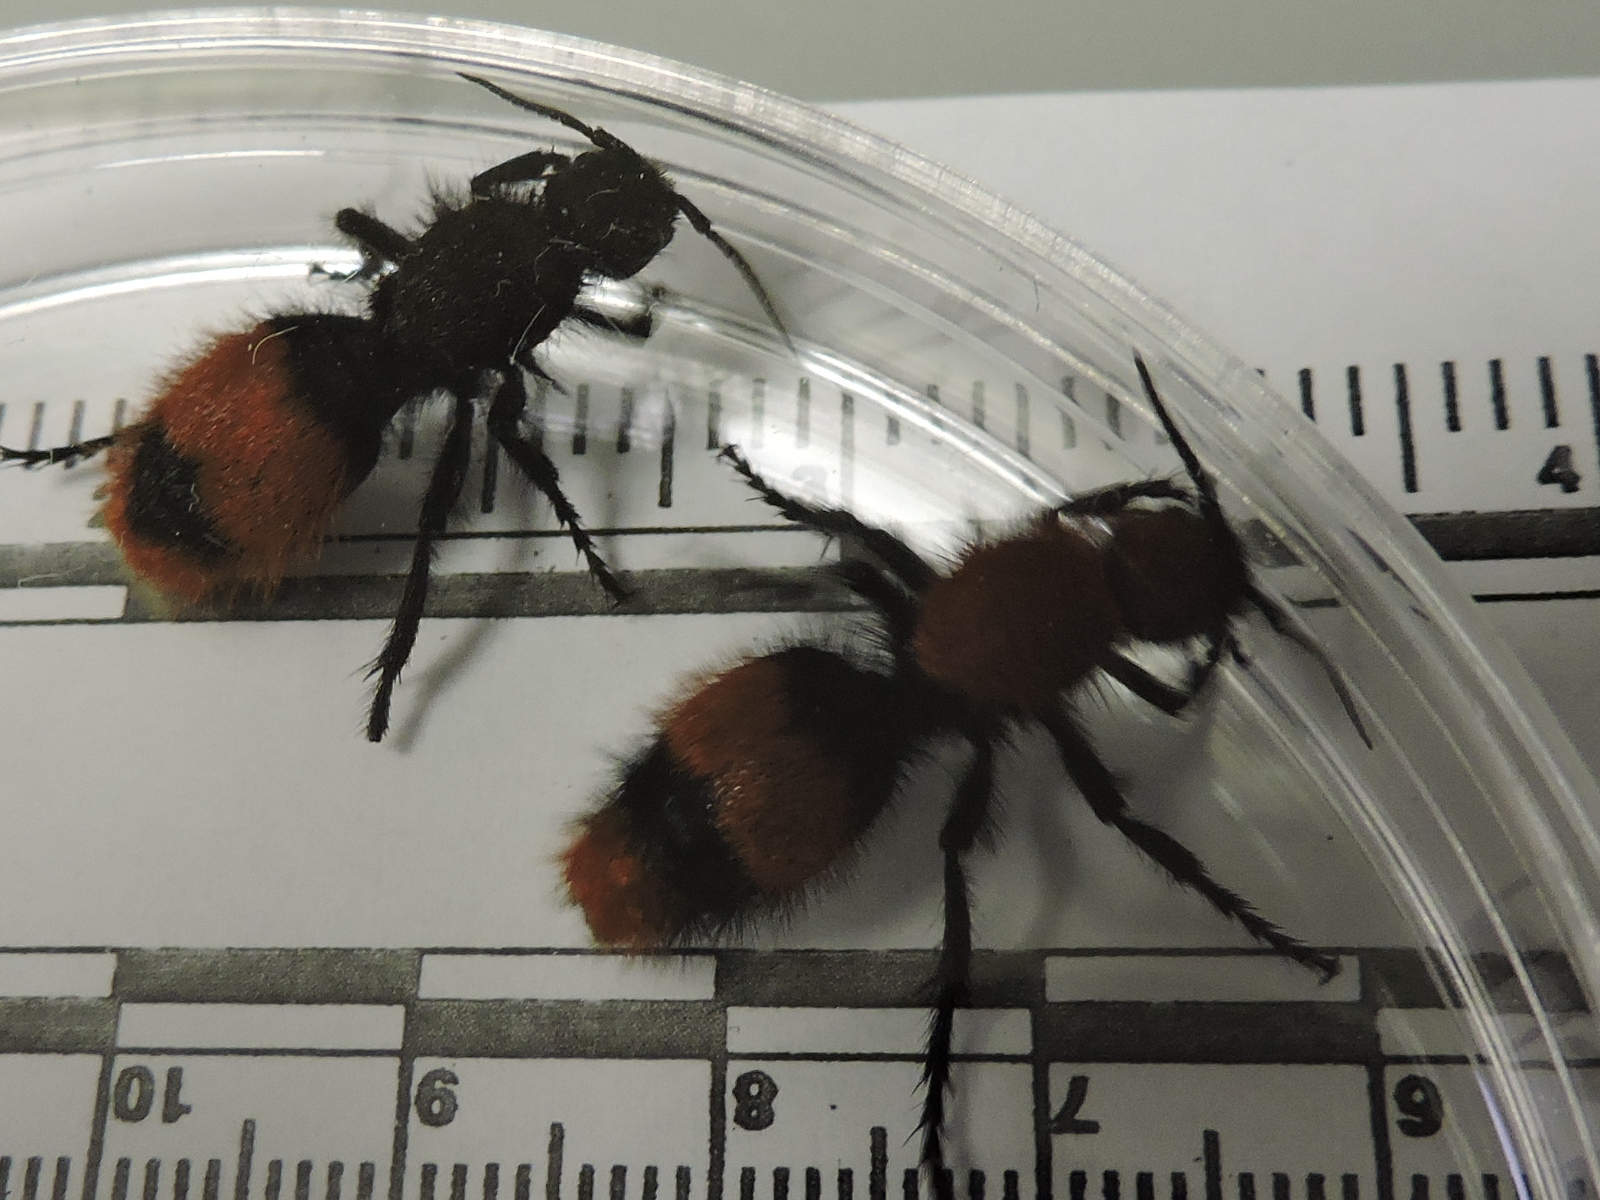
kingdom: Animalia
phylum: Arthropoda
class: Insecta
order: Hymenoptera
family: Mutillidae
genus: Dasymutilla
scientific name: Dasymutilla
